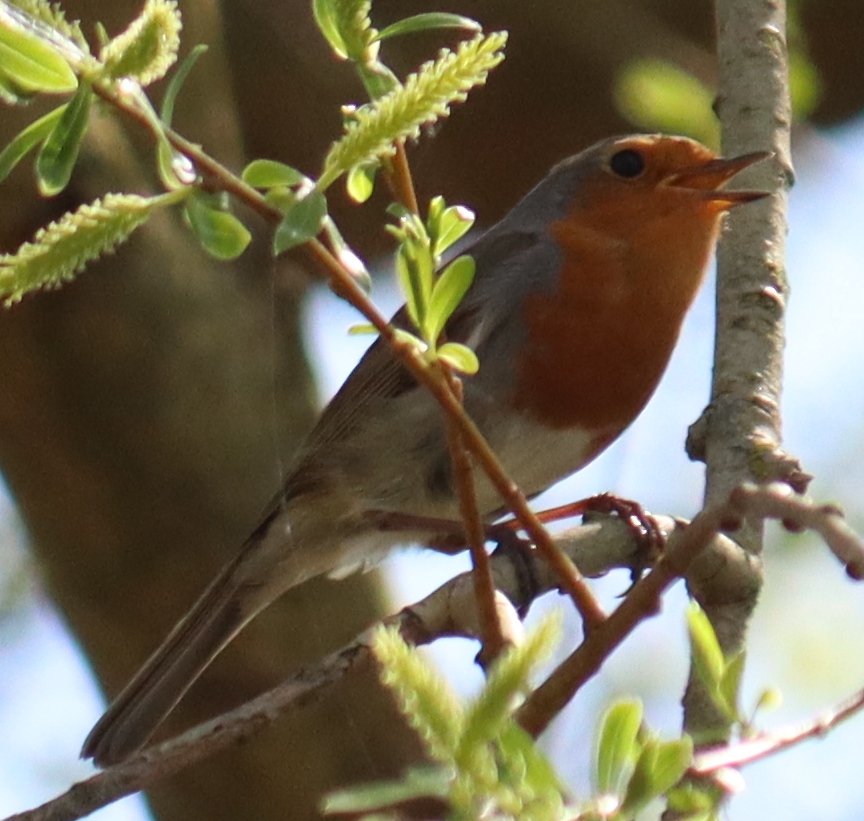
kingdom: Animalia
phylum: Chordata
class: Aves
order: Passeriformes
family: Muscicapidae
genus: Erithacus
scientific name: Erithacus rubecula
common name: European robin
